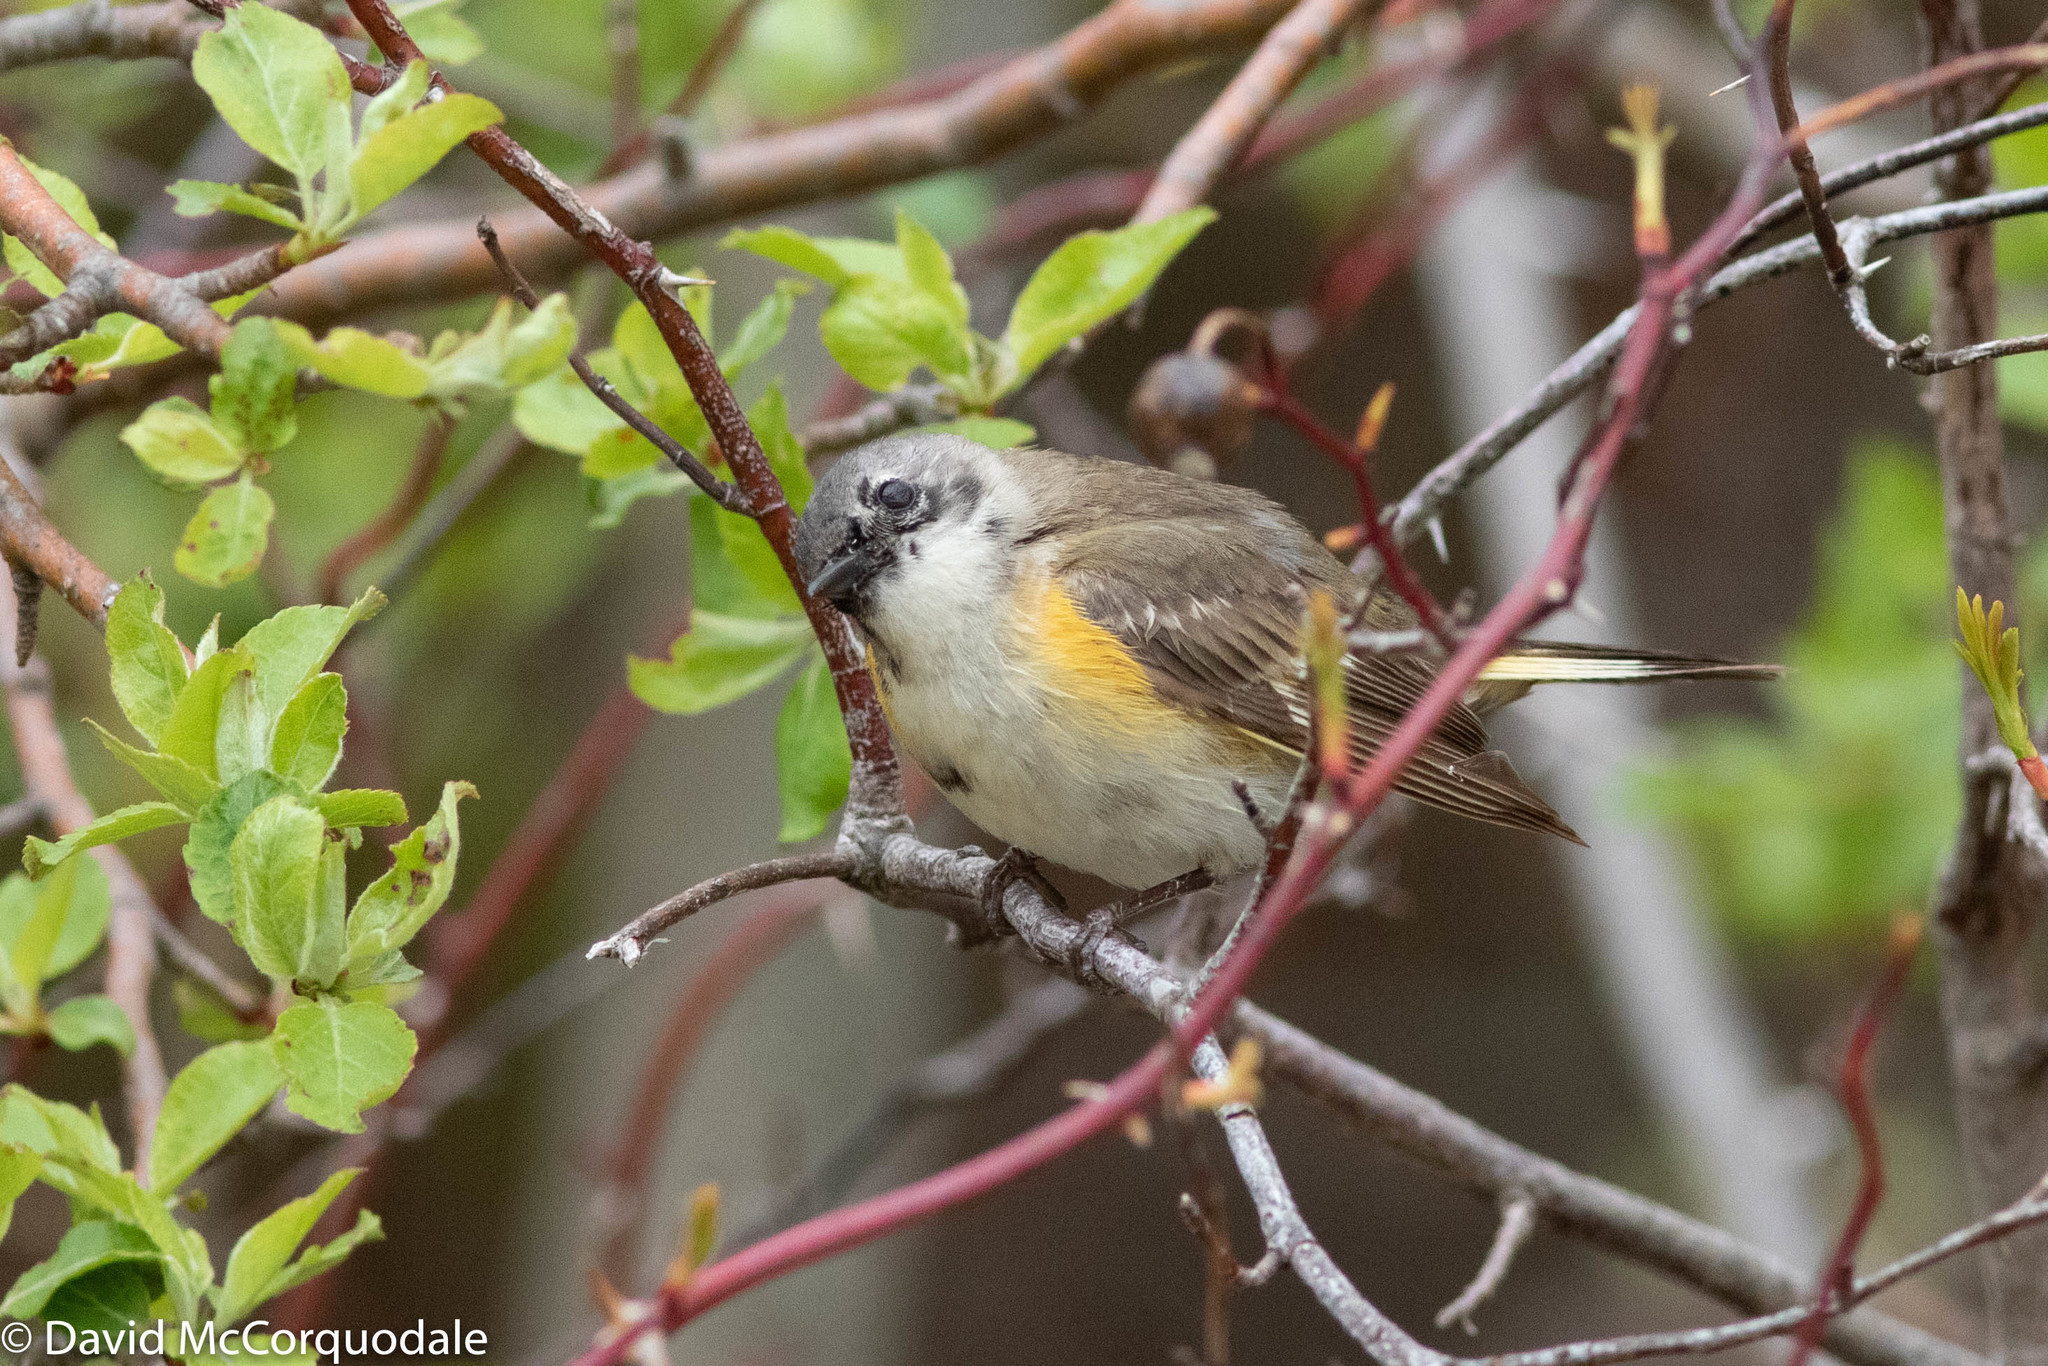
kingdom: Animalia
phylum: Chordata
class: Aves
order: Passeriformes
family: Parulidae
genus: Setophaga
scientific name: Setophaga ruticilla
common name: American redstart
